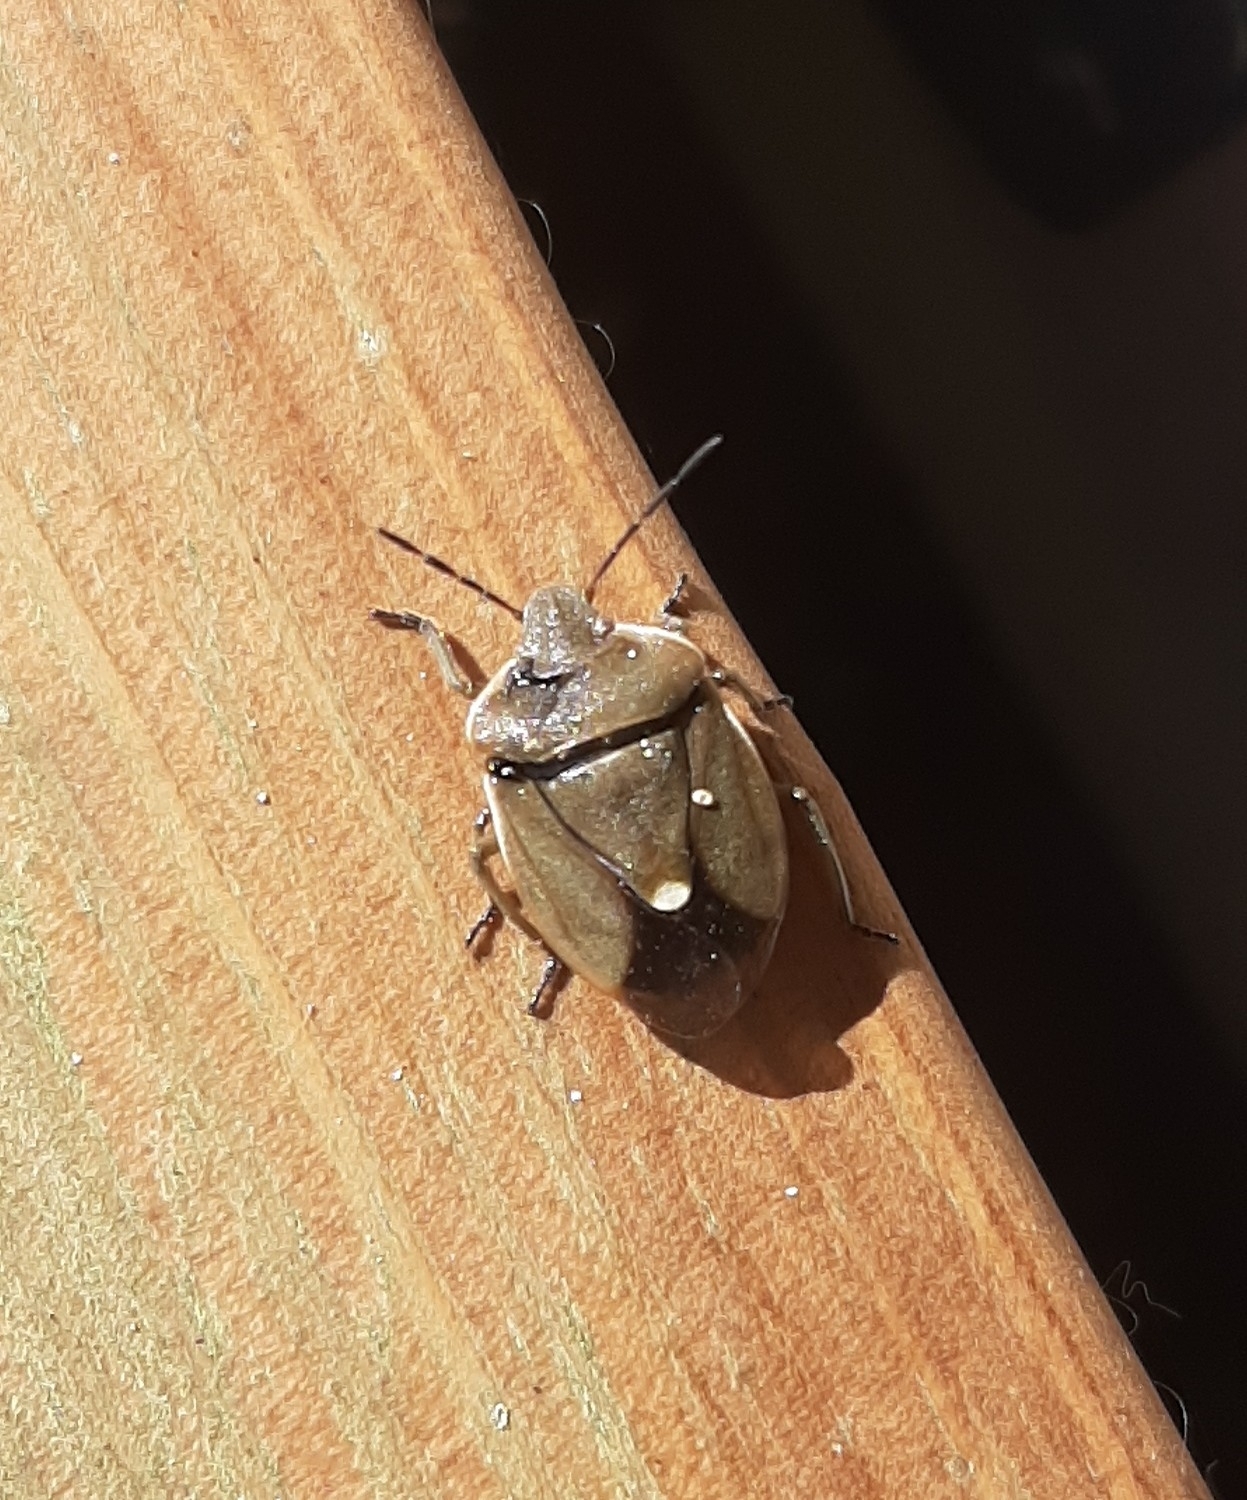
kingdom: Animalia
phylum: Arthropoda
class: Insecta
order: Hemiptera
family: Pentatomidae
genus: Chlorochroa
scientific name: Chlorochroa pinicola
